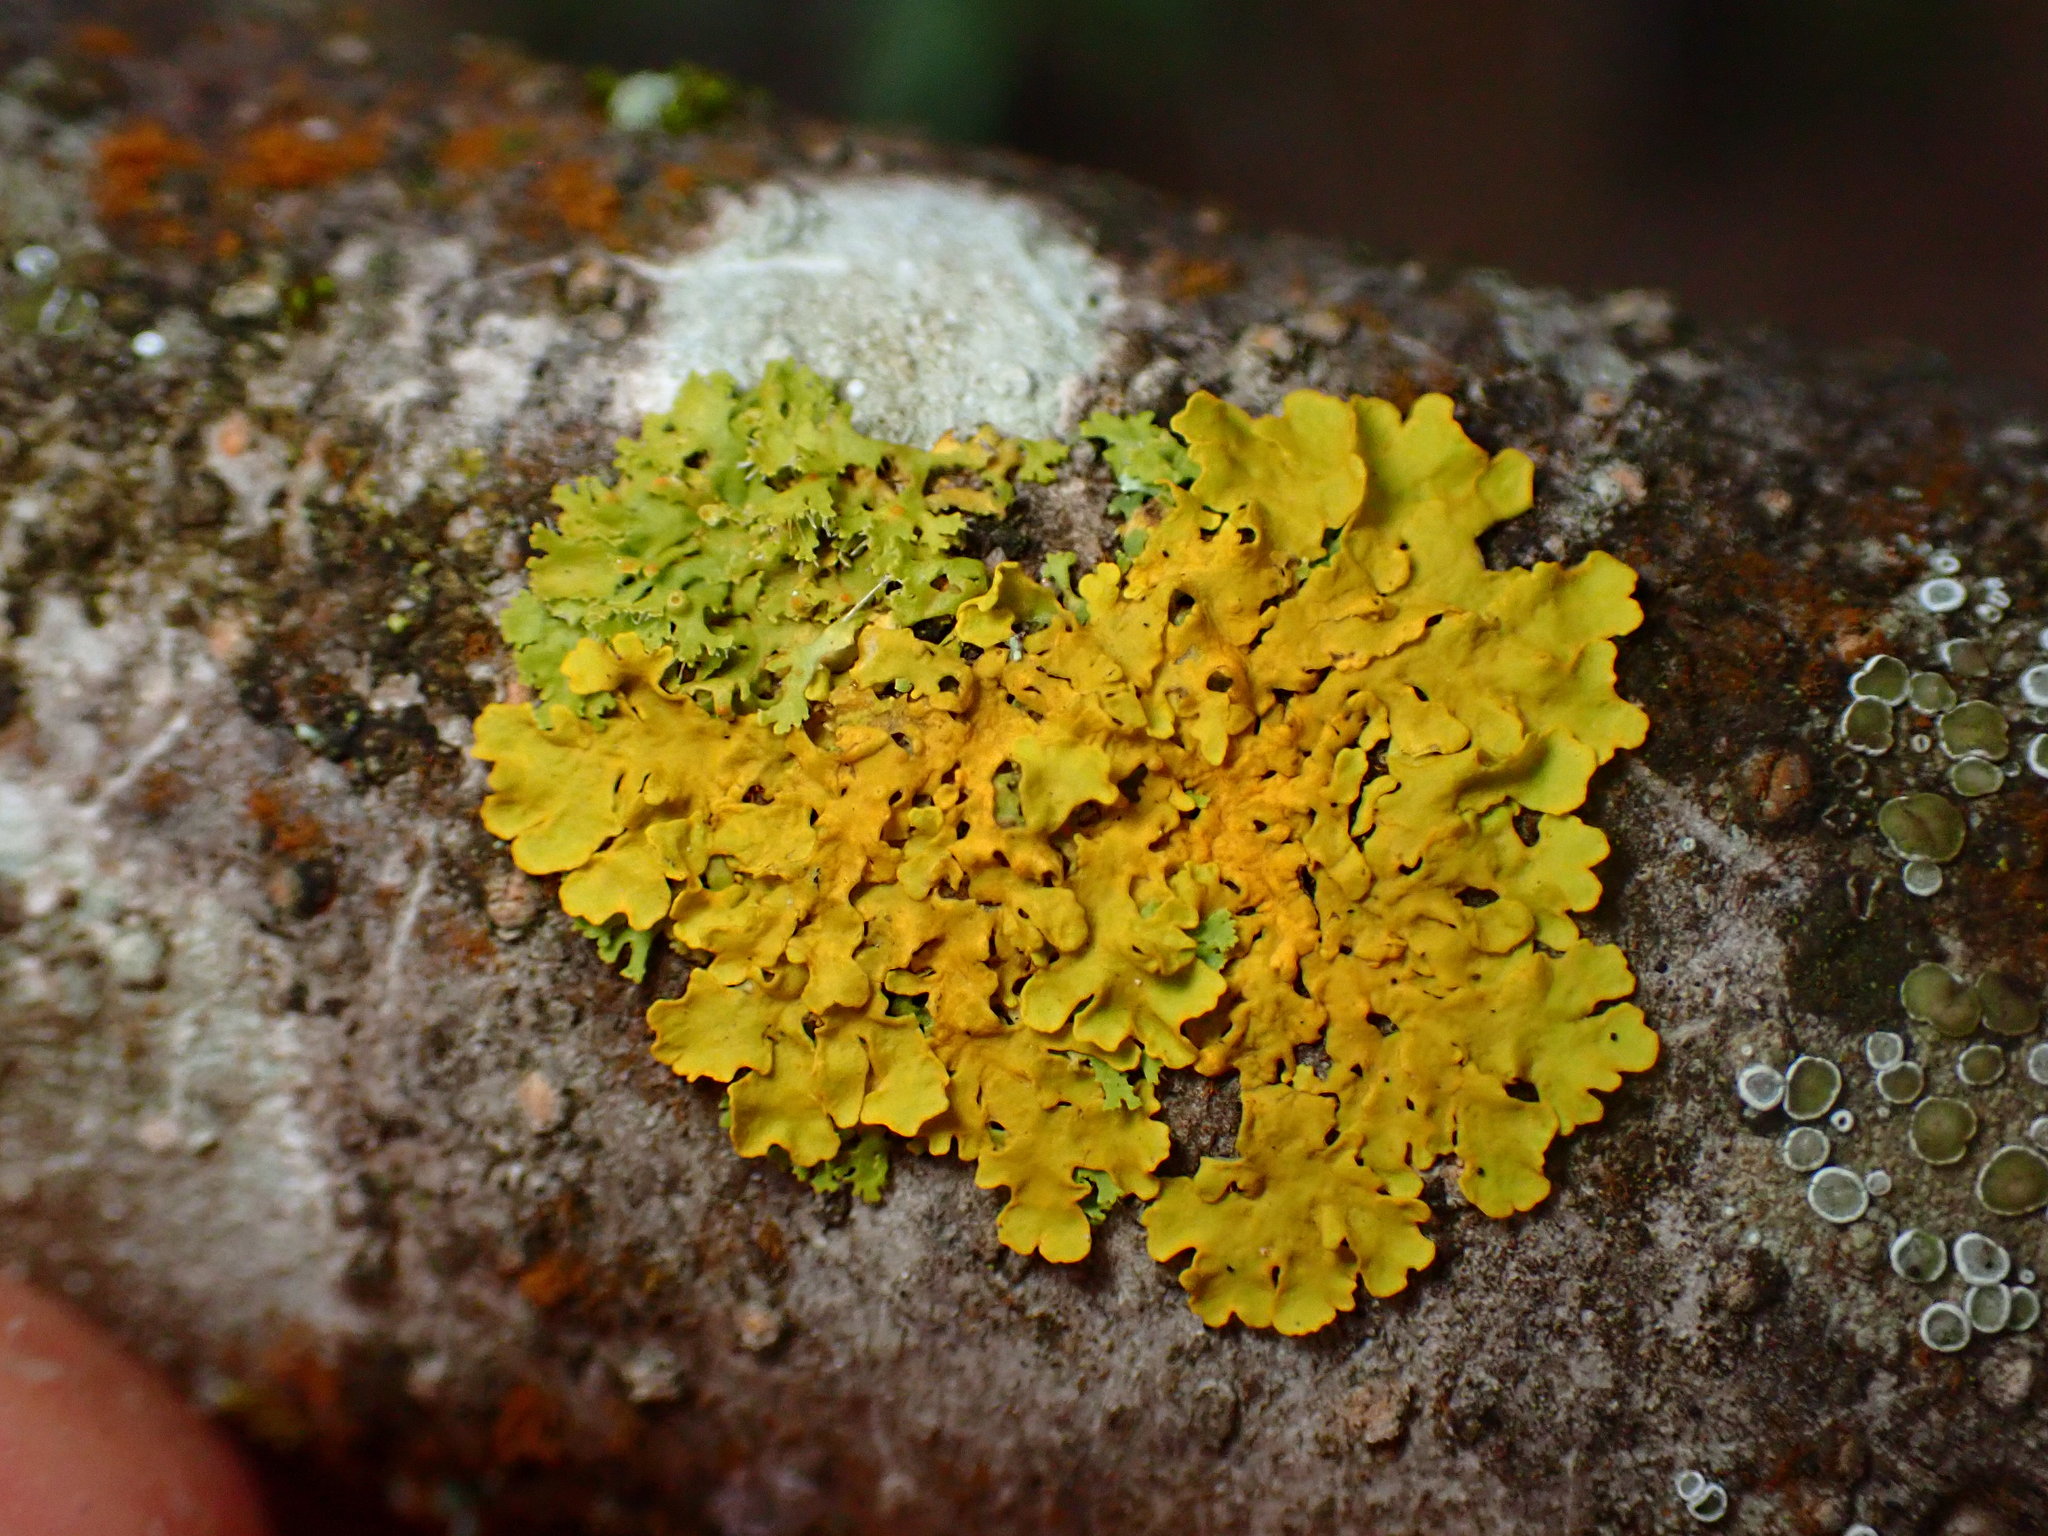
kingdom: Fungi
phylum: Ascomycota
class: Lecanoromycetes
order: Teloschistales
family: Teloschistaceae
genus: Xanthoria
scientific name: Xanthoria parietina
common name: Common orange lichen
